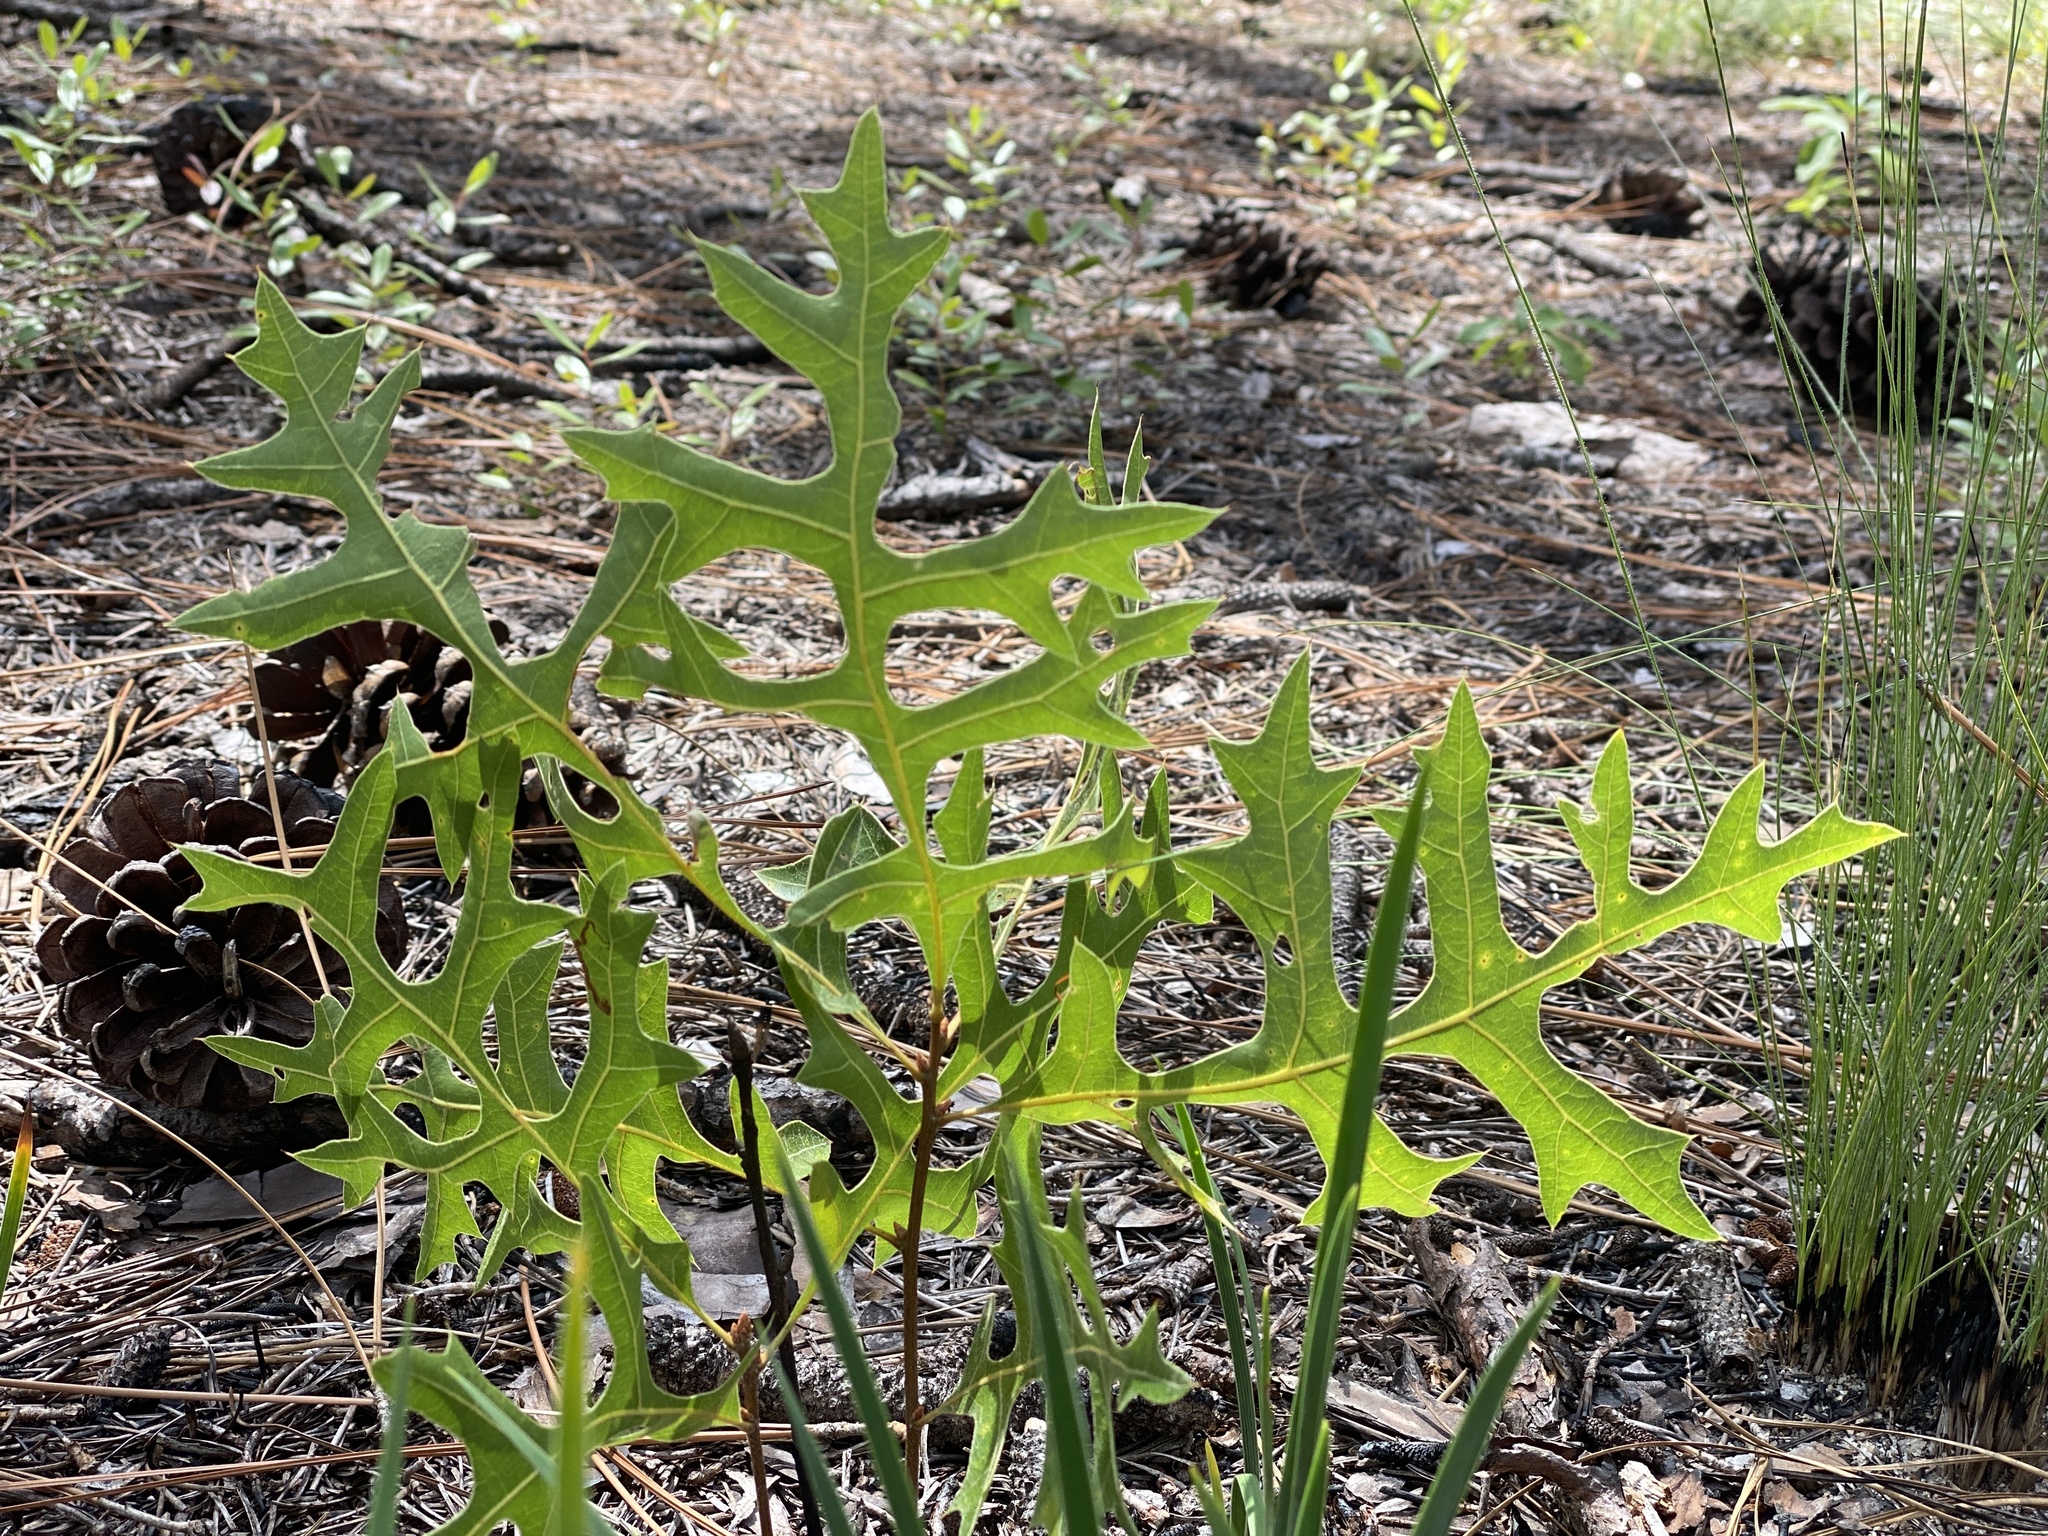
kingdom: Plantae
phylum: Tracheophyta
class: Magnoliopsida
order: Fagales
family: Fagaceae
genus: Quercus
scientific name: Quercus laevis
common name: Turkey oak
